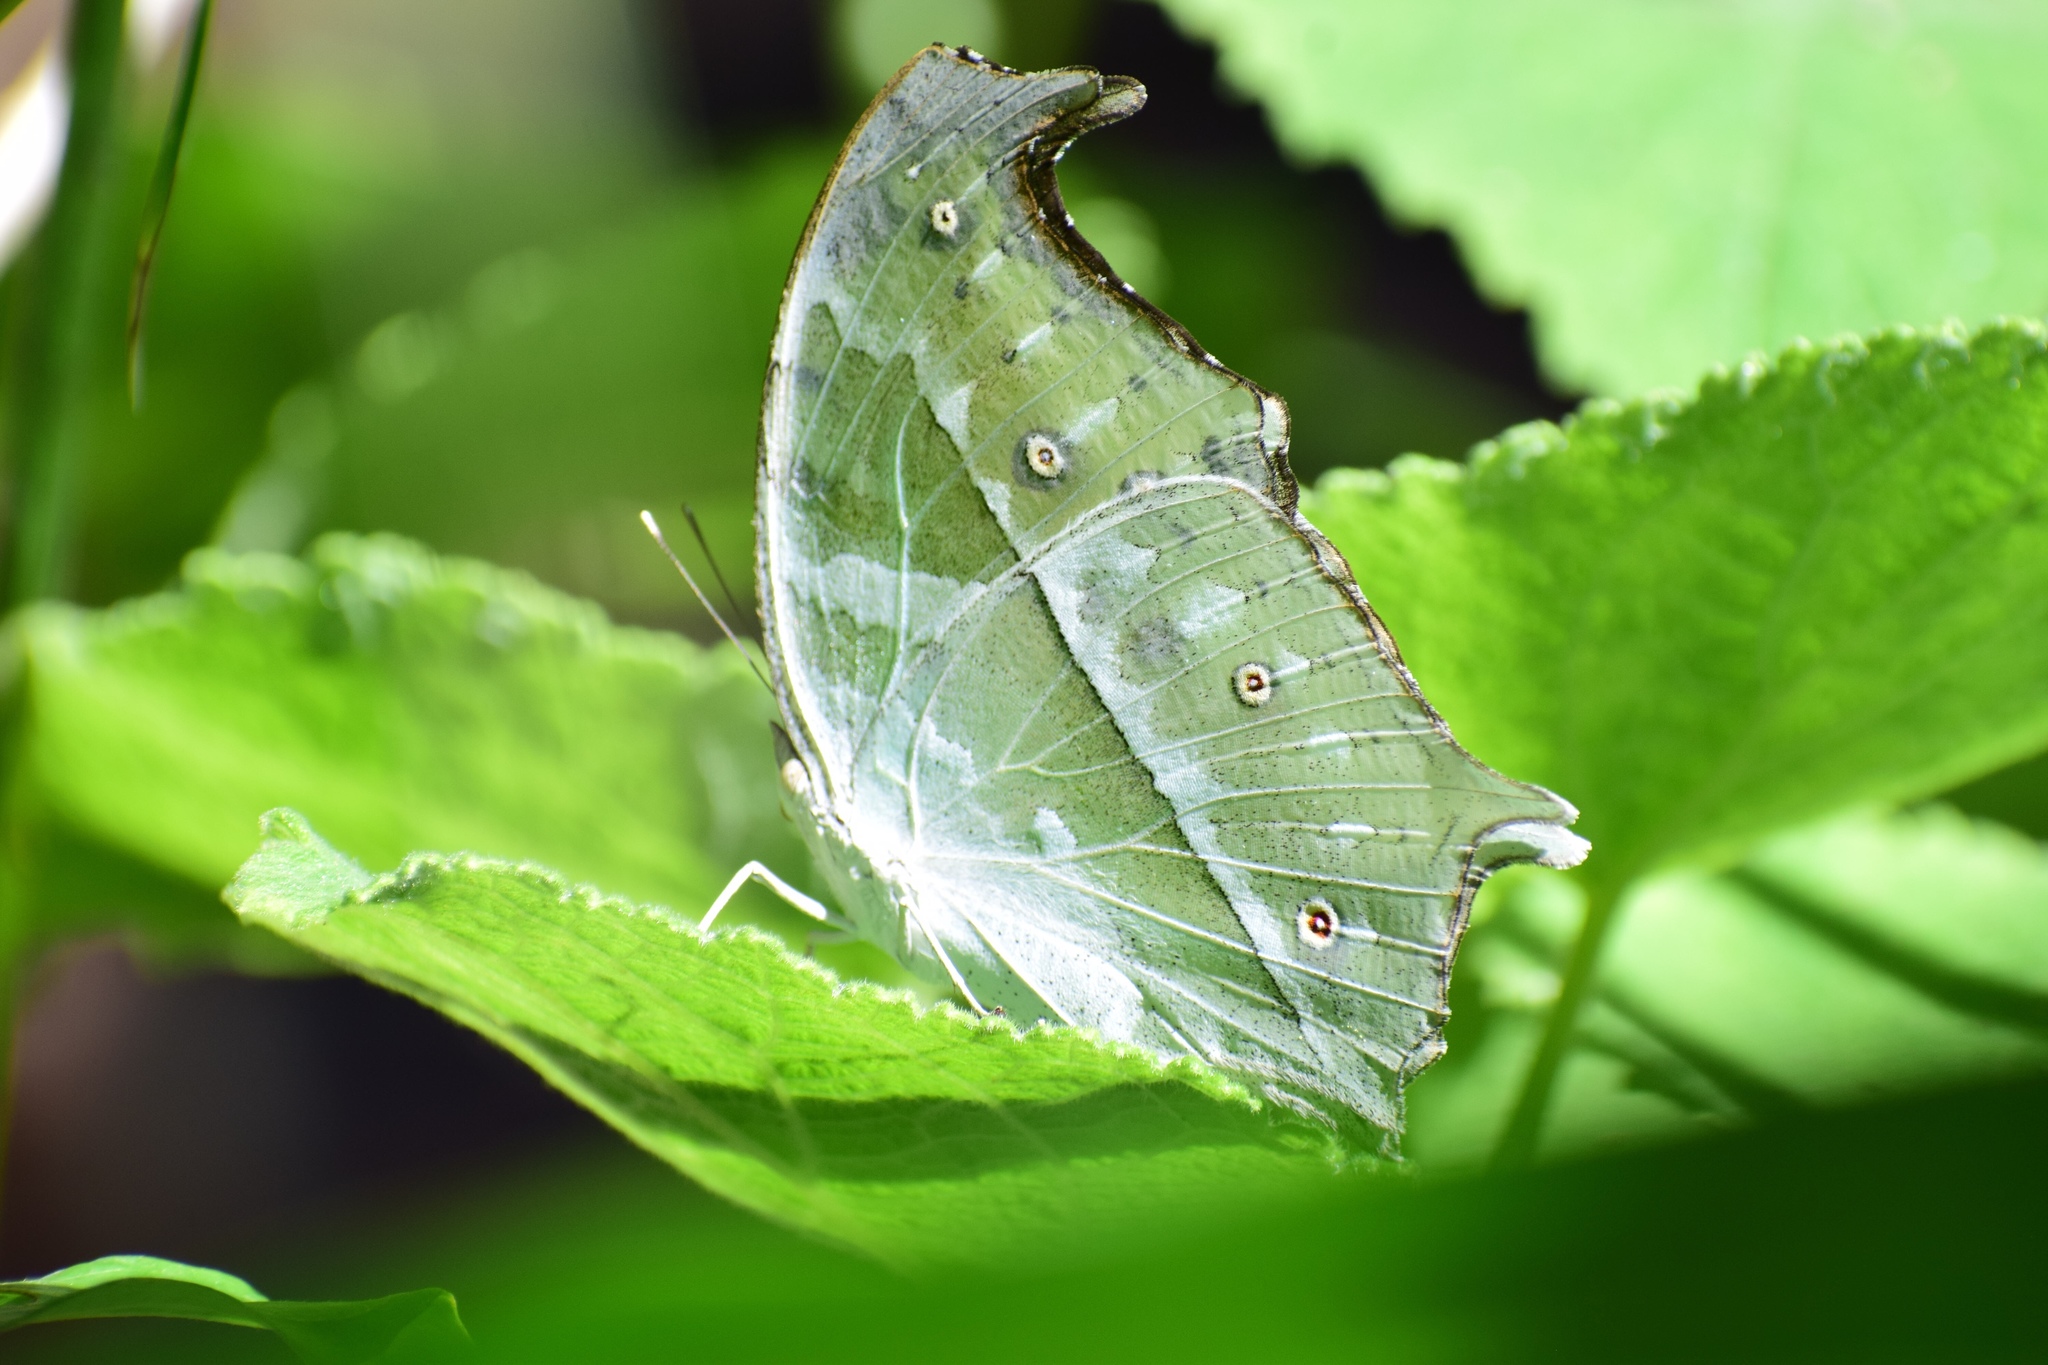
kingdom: Animalia
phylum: Arthropoda
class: Insecta
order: Lepidoptera
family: Nymphalidae
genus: Salamis
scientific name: Salamis Protogoniomorpha parhassus
